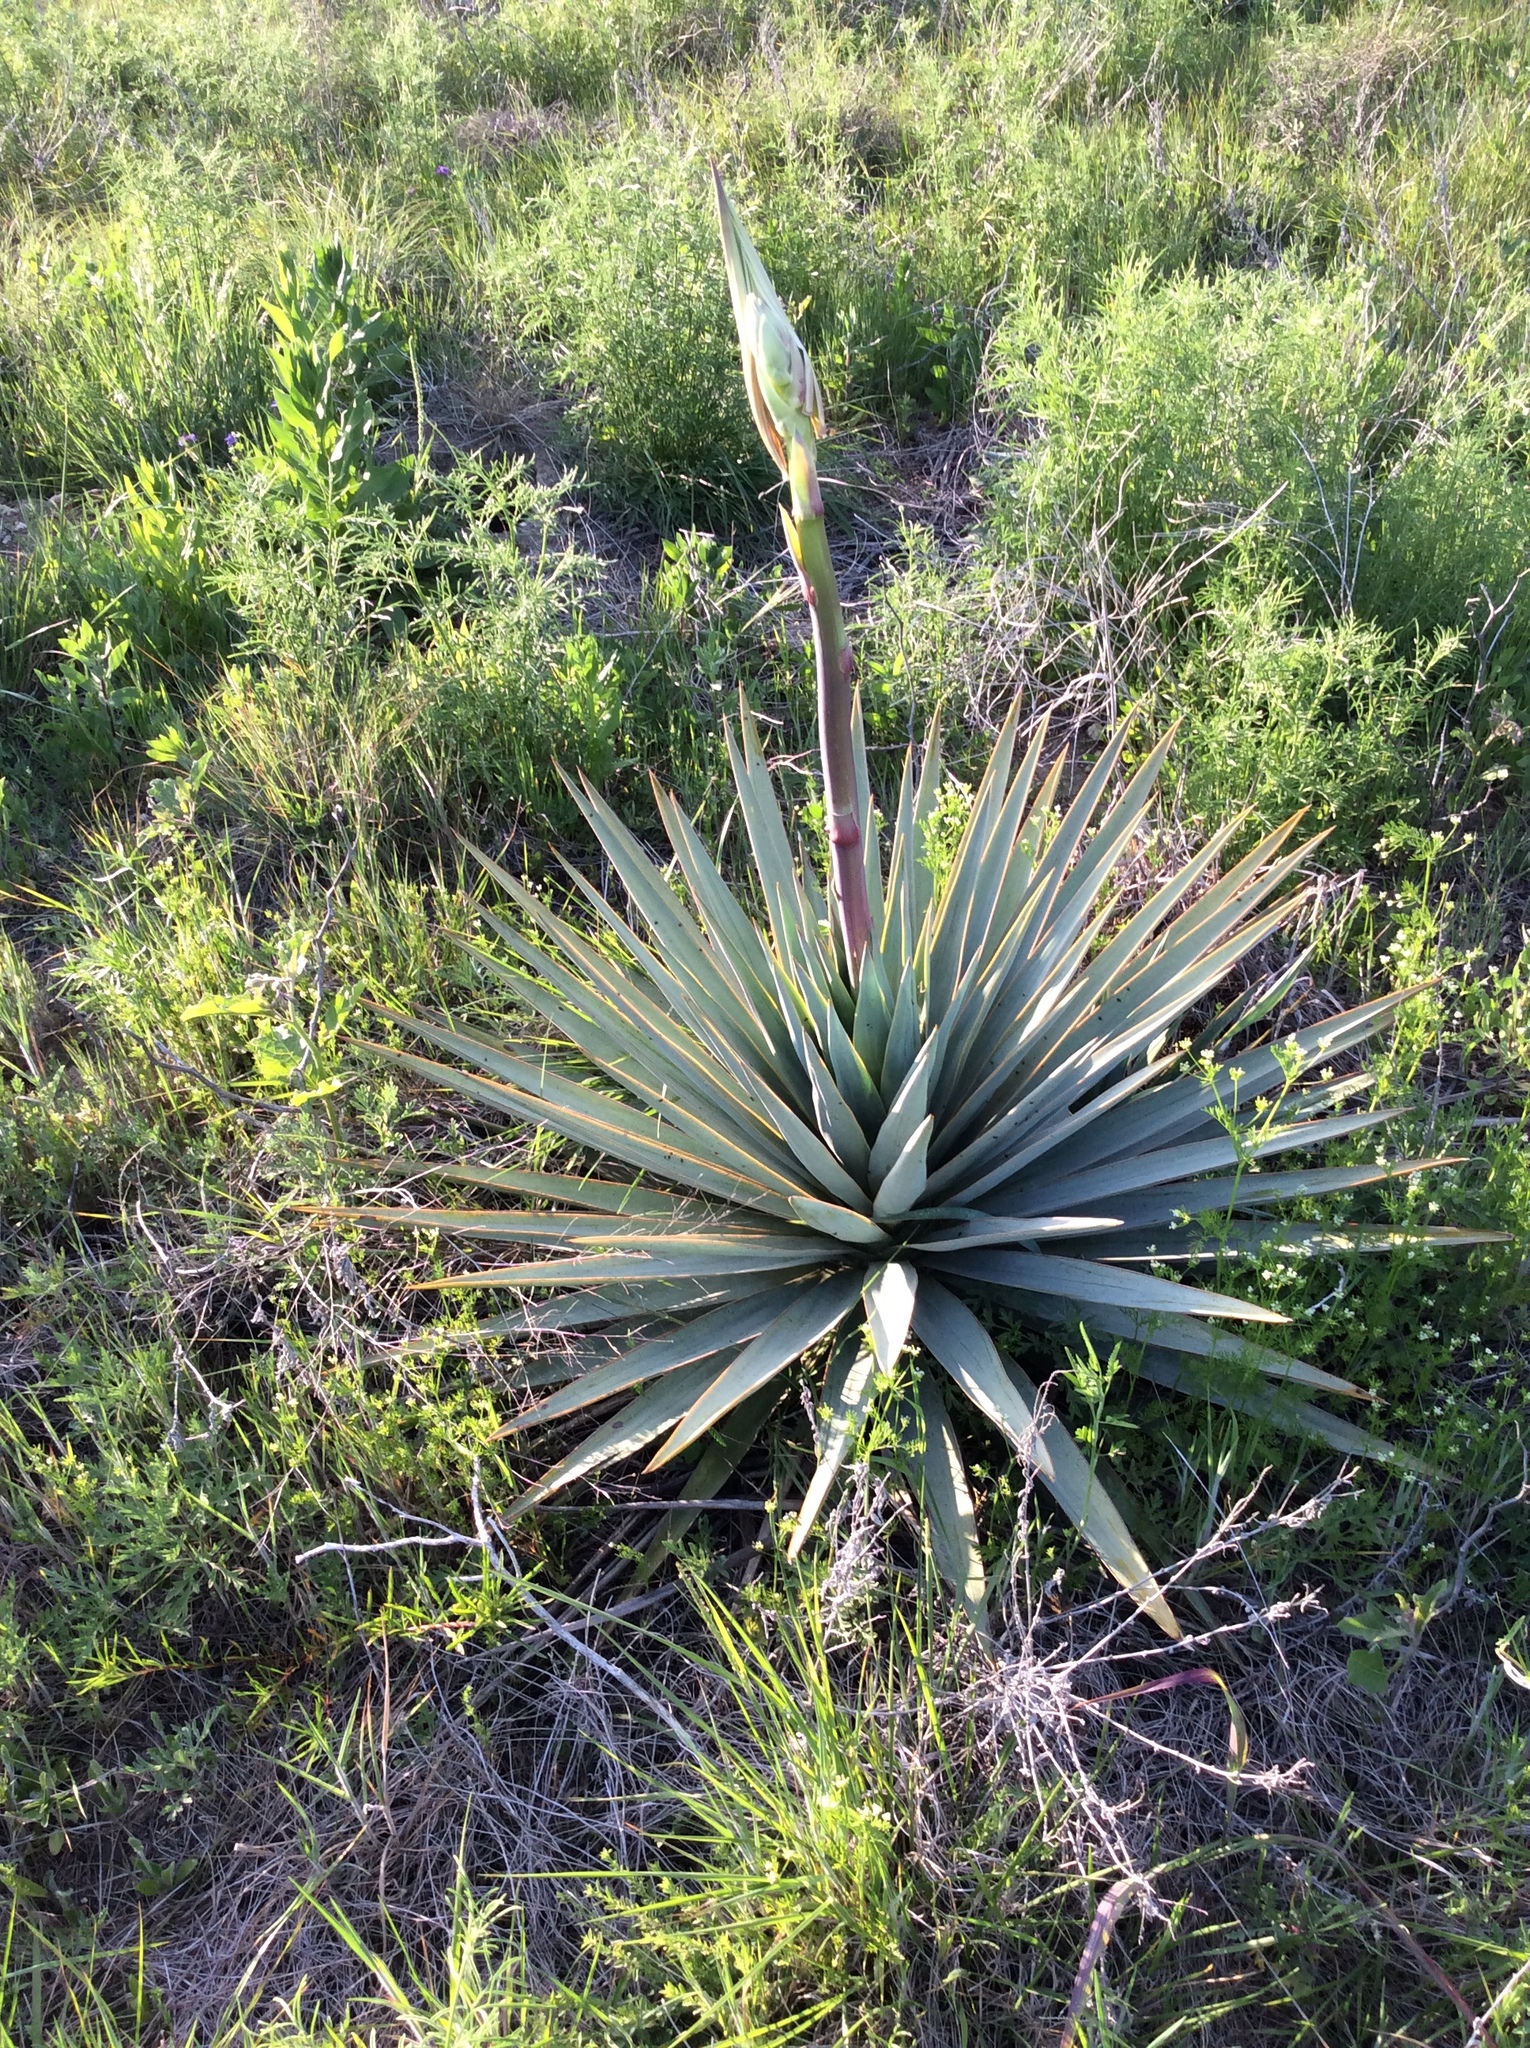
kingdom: Plantae
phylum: Tracheophyta
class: Liliopsida
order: Asparagales
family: Asparagaceae
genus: Yucca
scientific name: Yucca pallida
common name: Pale leaf yucca
